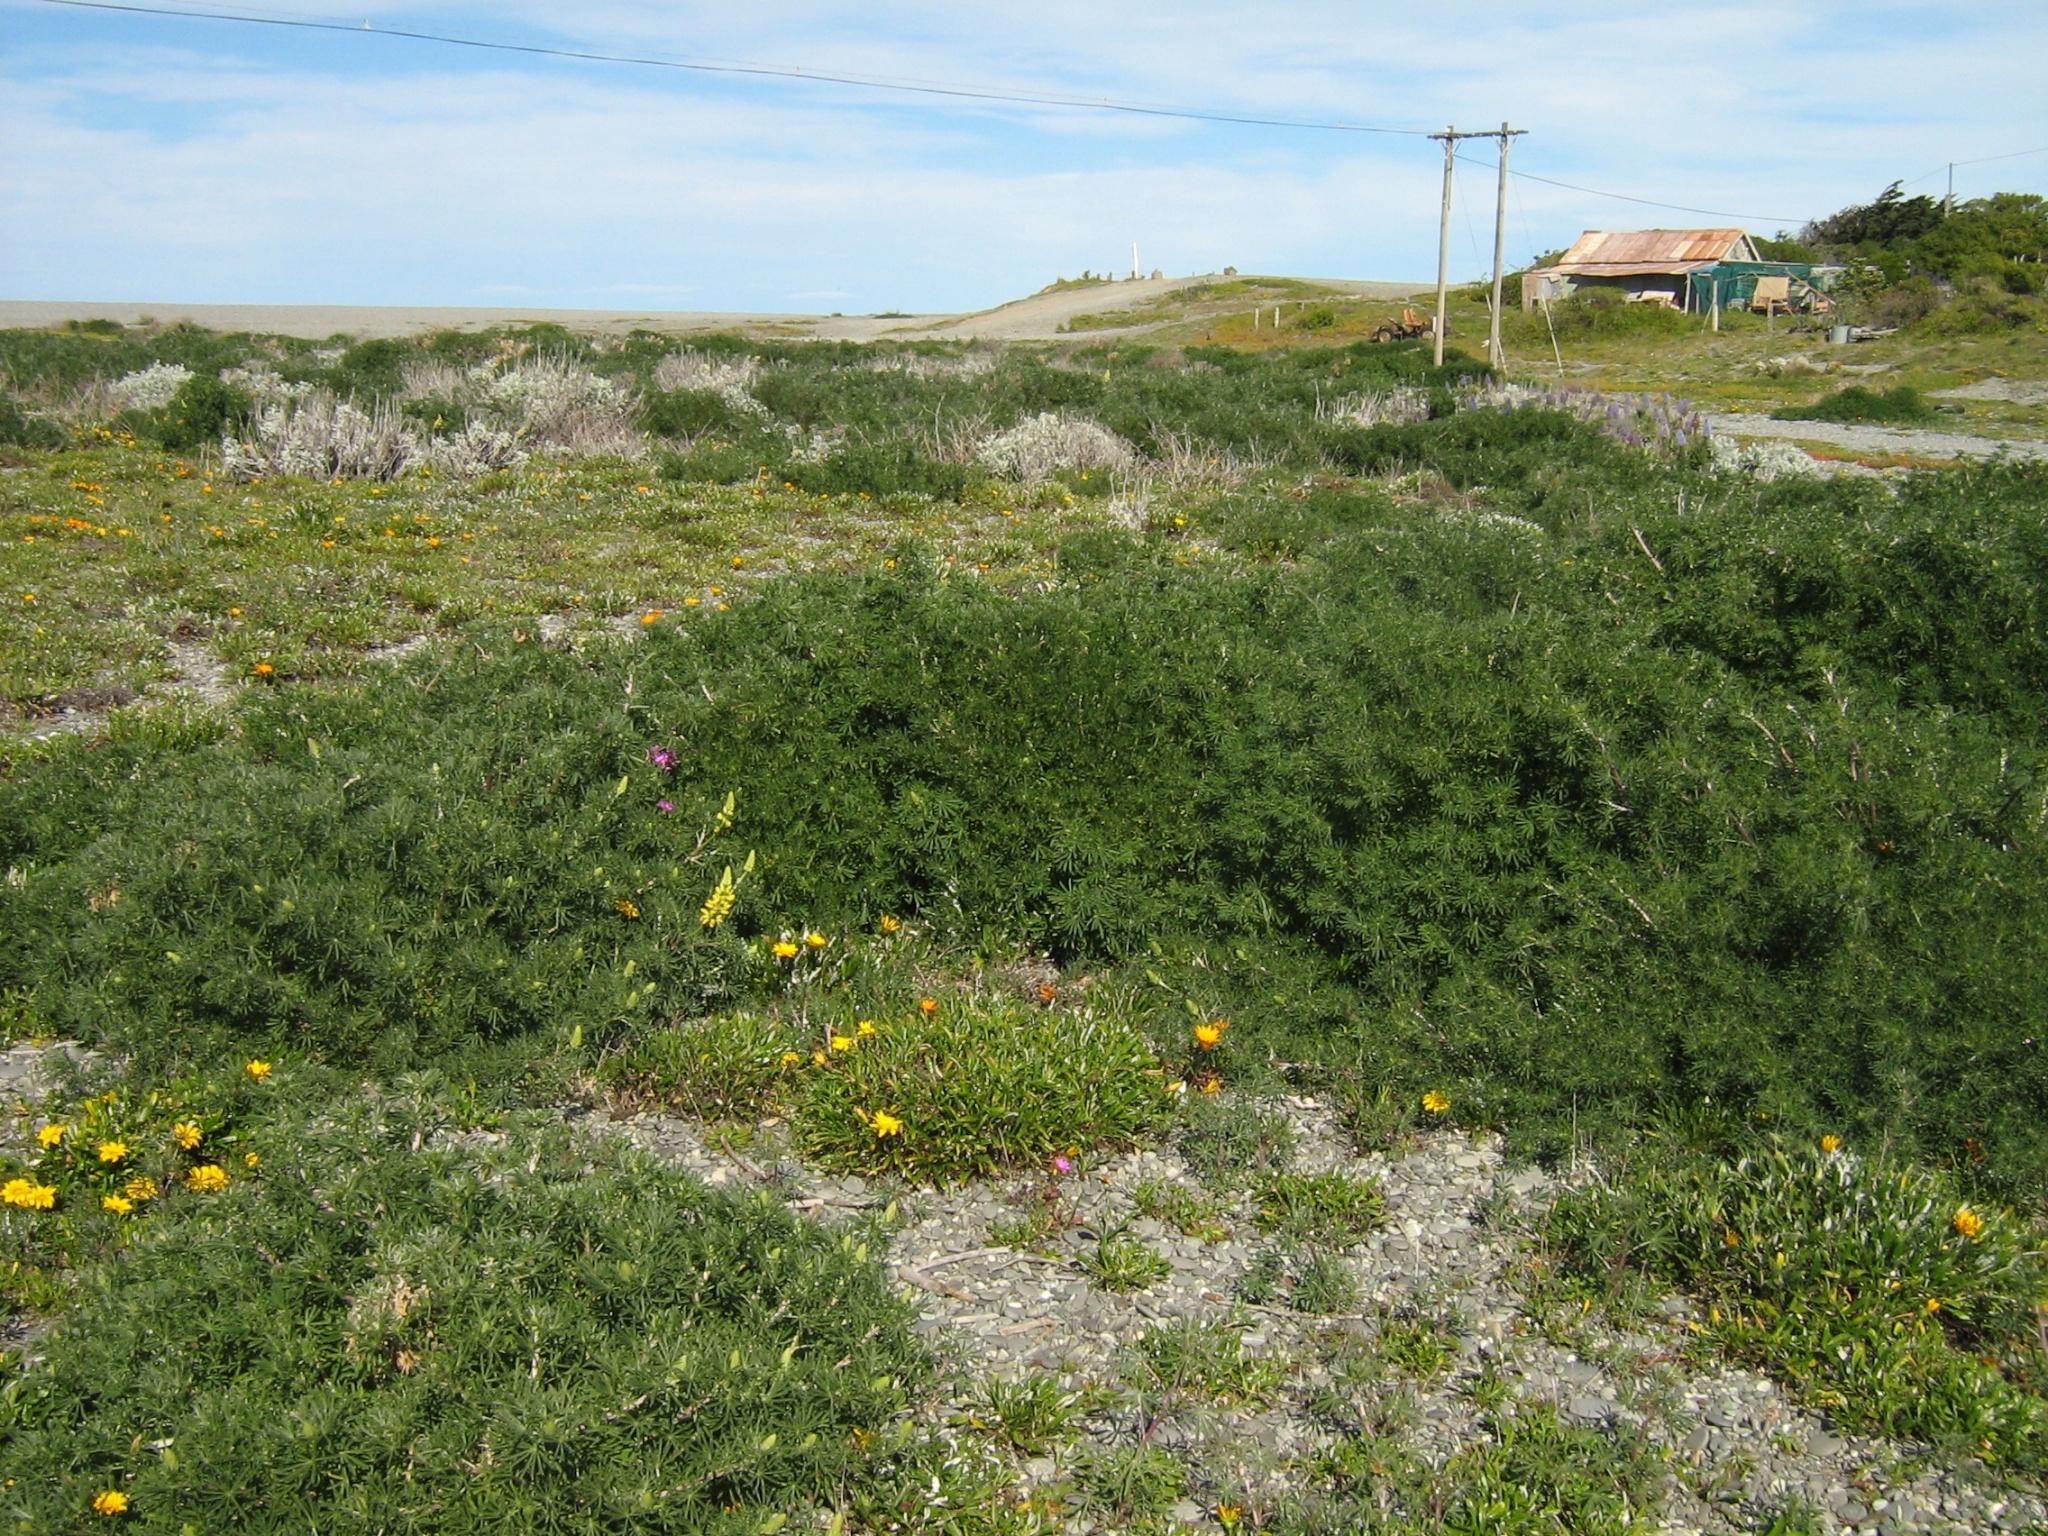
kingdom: Plantae
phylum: Tracheophyta
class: Magnoliopsida
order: Fabales
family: Fabaceae
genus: Lupinus
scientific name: Lupinus arboreus
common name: Yellow bush lupine
